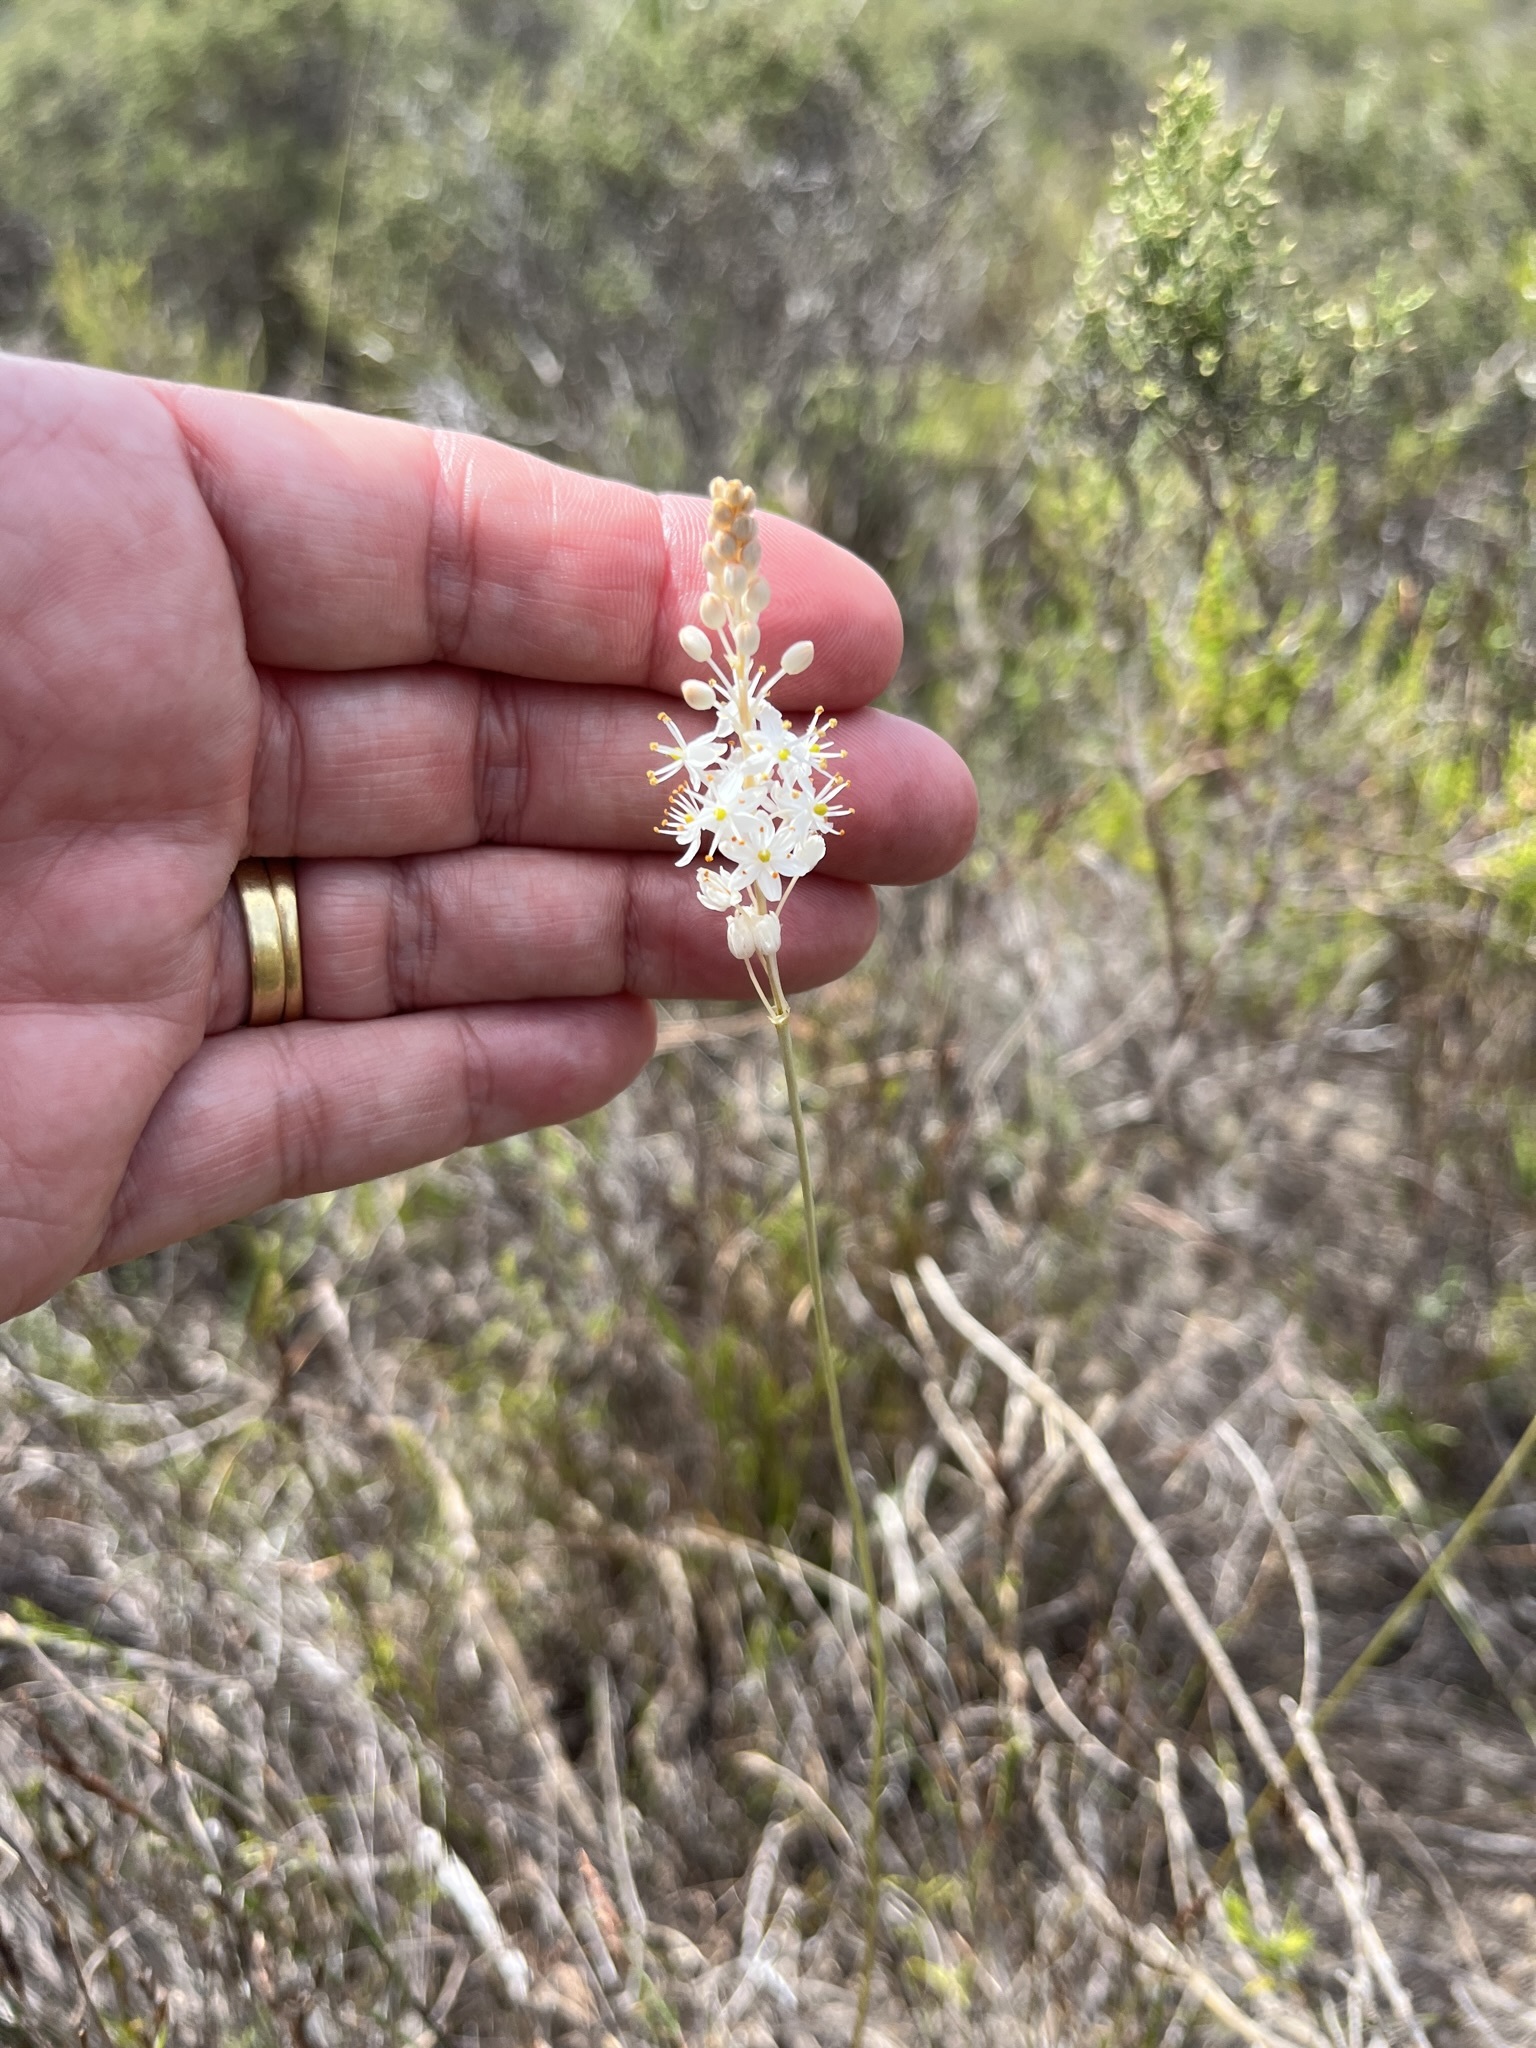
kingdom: Plantae
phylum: Tracheophyta
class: Liliopsida
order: Asparagales
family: Asphodelaceae
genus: Bulbinella
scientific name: Bulbinella trinervis
